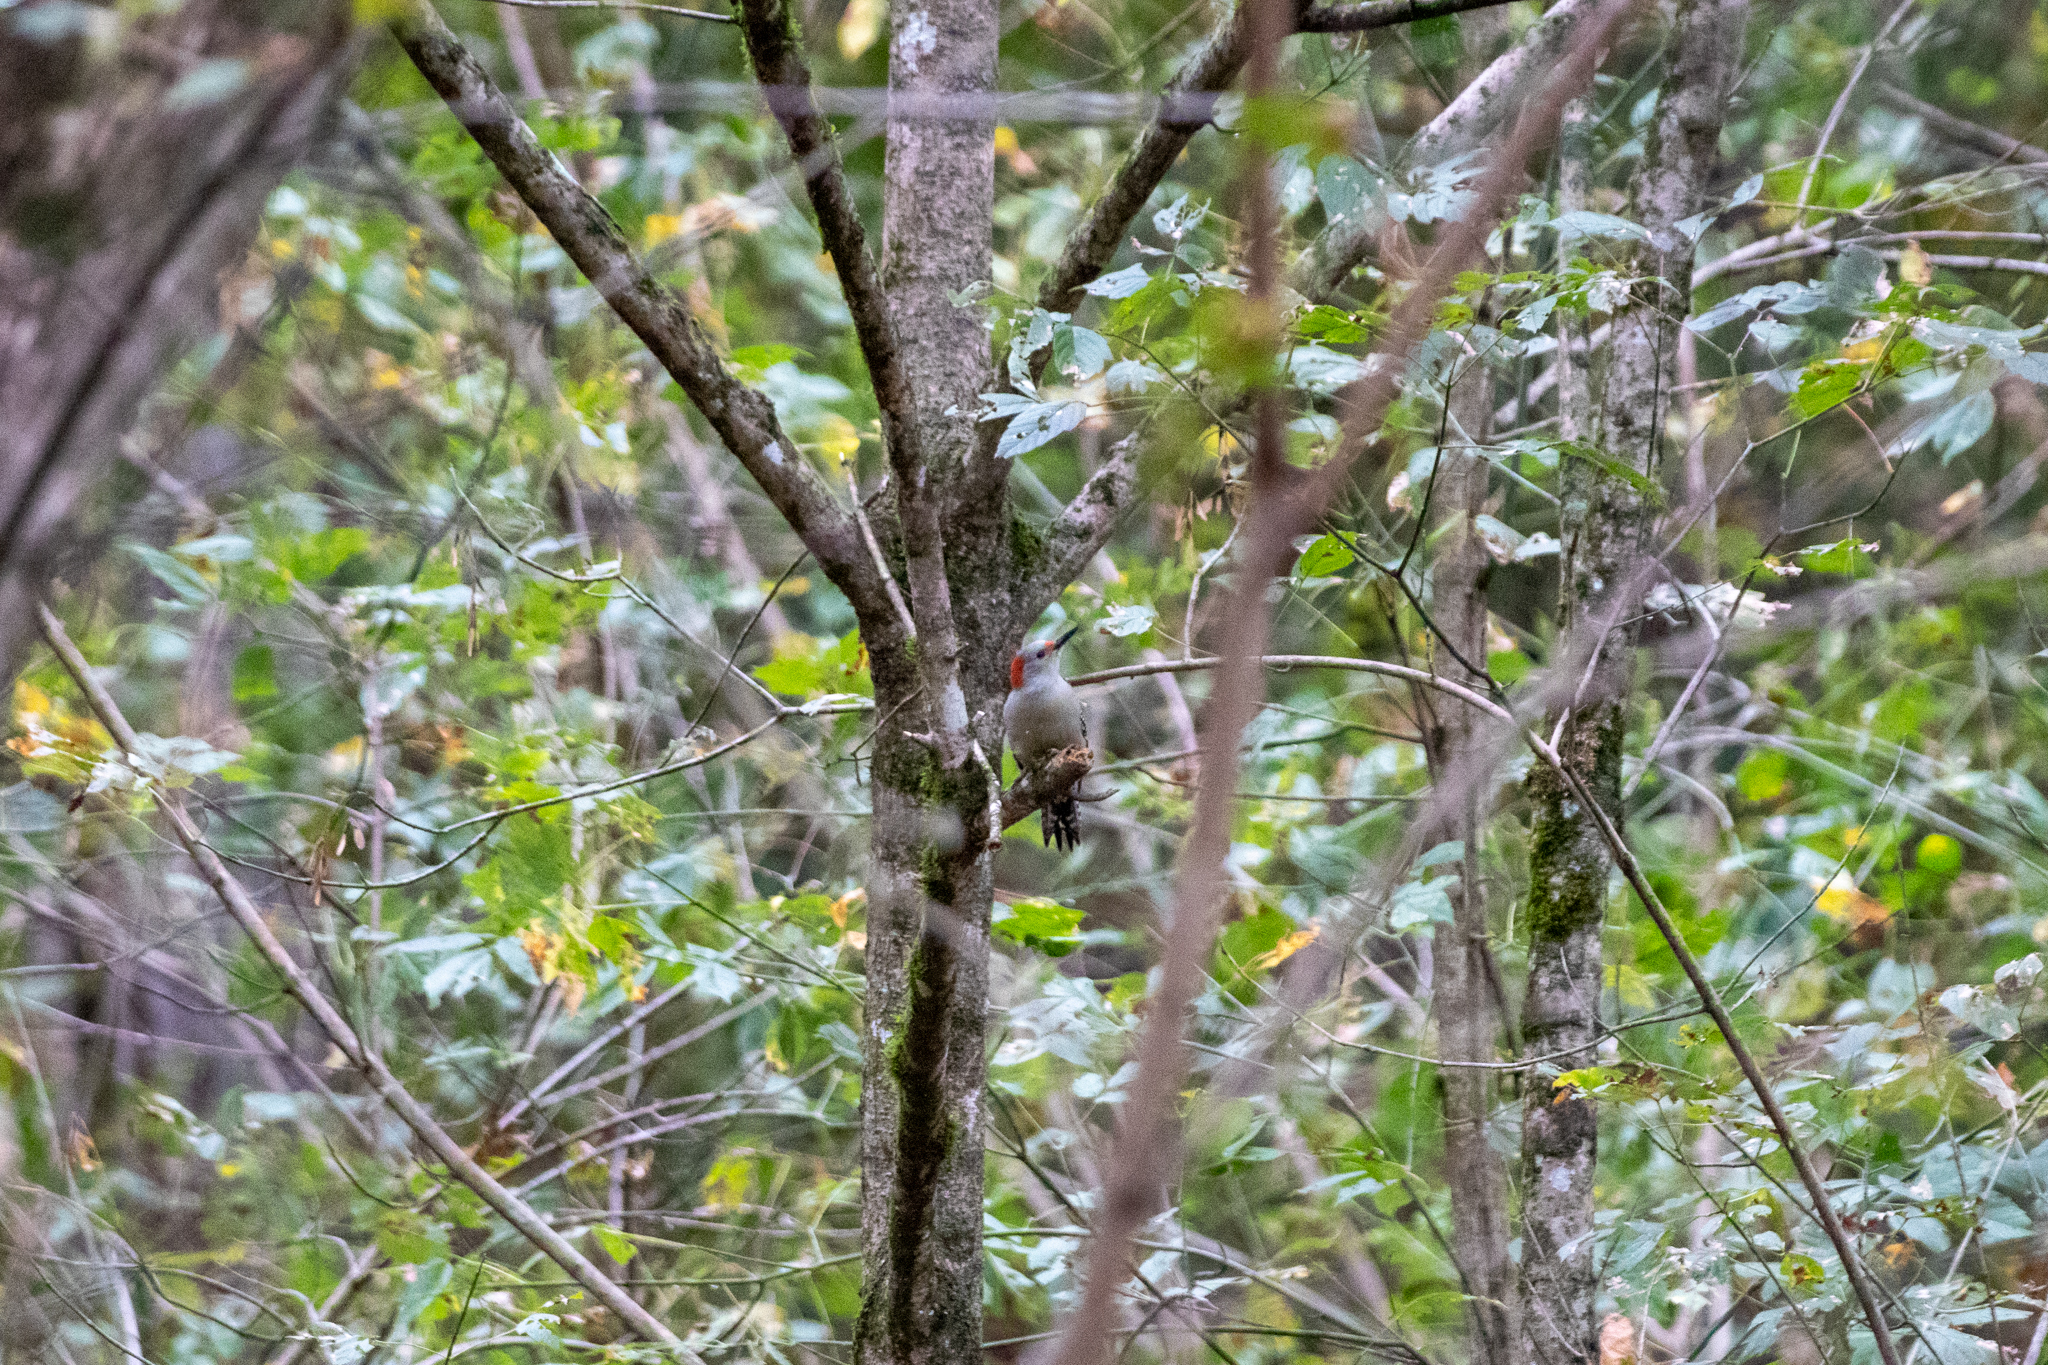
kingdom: Animalia
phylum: Chordata
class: Aves
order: Piciformes
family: Picidae
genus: Melanerpes
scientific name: Melanerpes carolinus
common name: Red-bellied woodpecker
